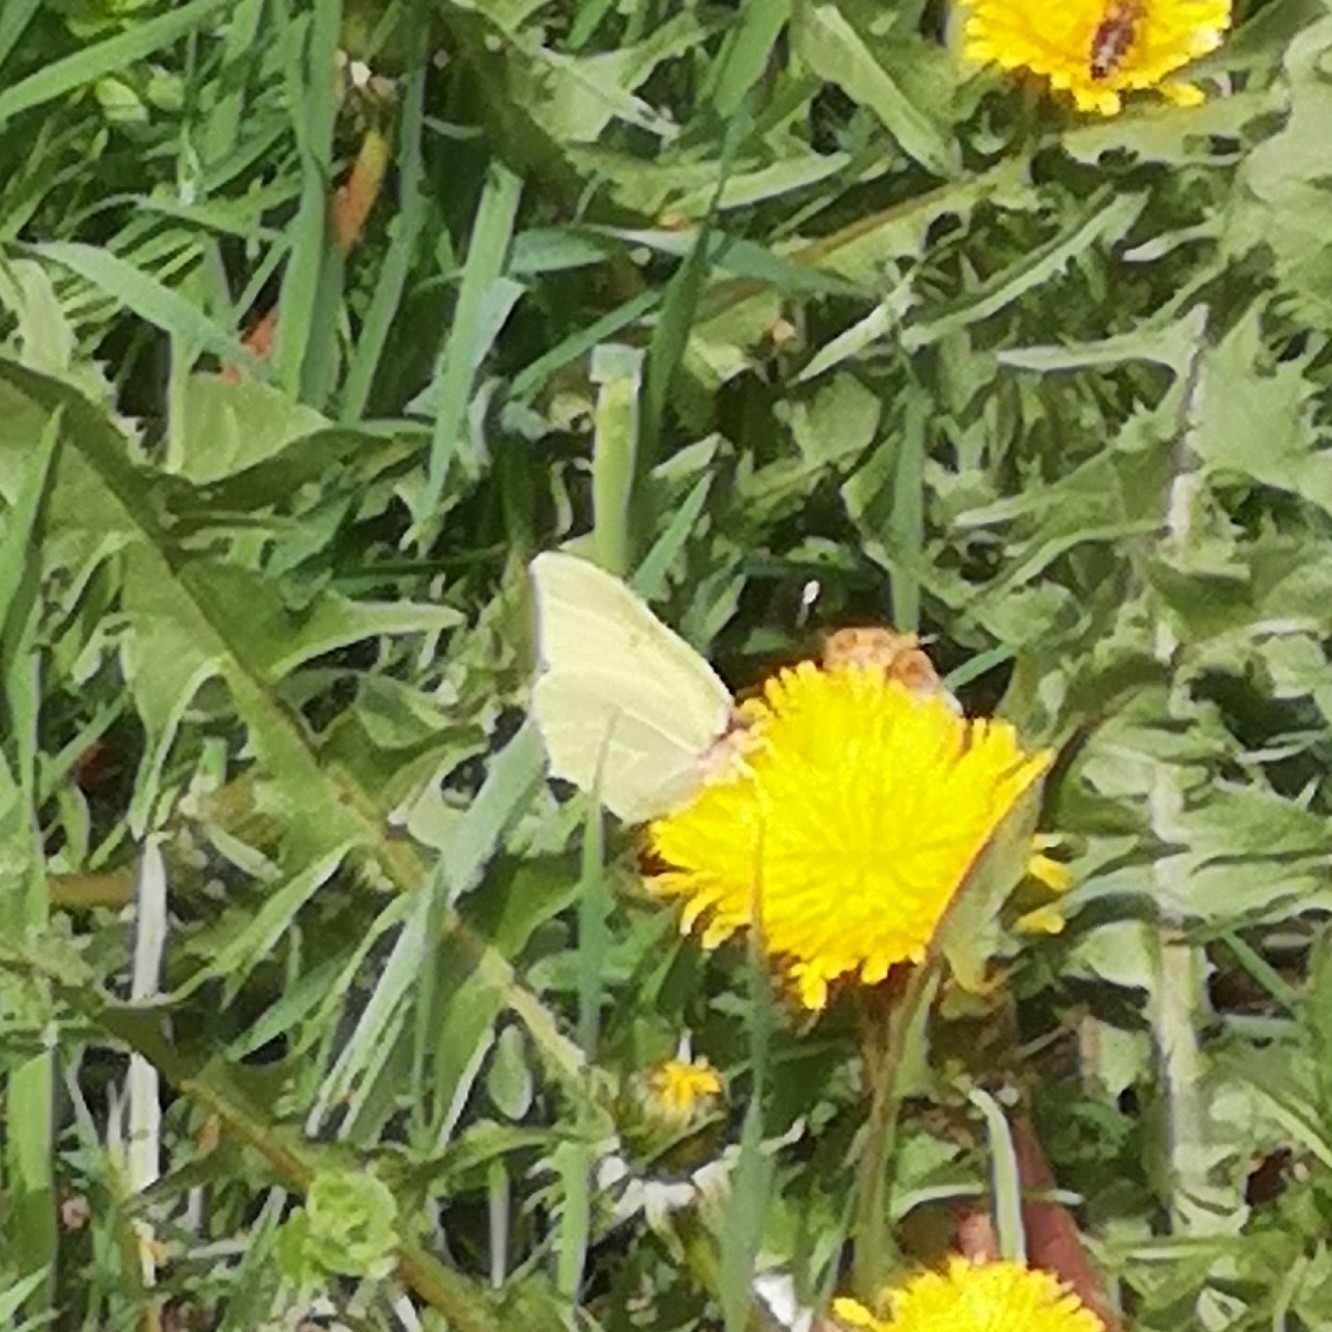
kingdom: Animalia
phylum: Arthropoda
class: Insecta
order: Lepidoptera
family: Pieridae
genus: Gonepteryx
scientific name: Gonepteryx rhamni
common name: Brimstone
